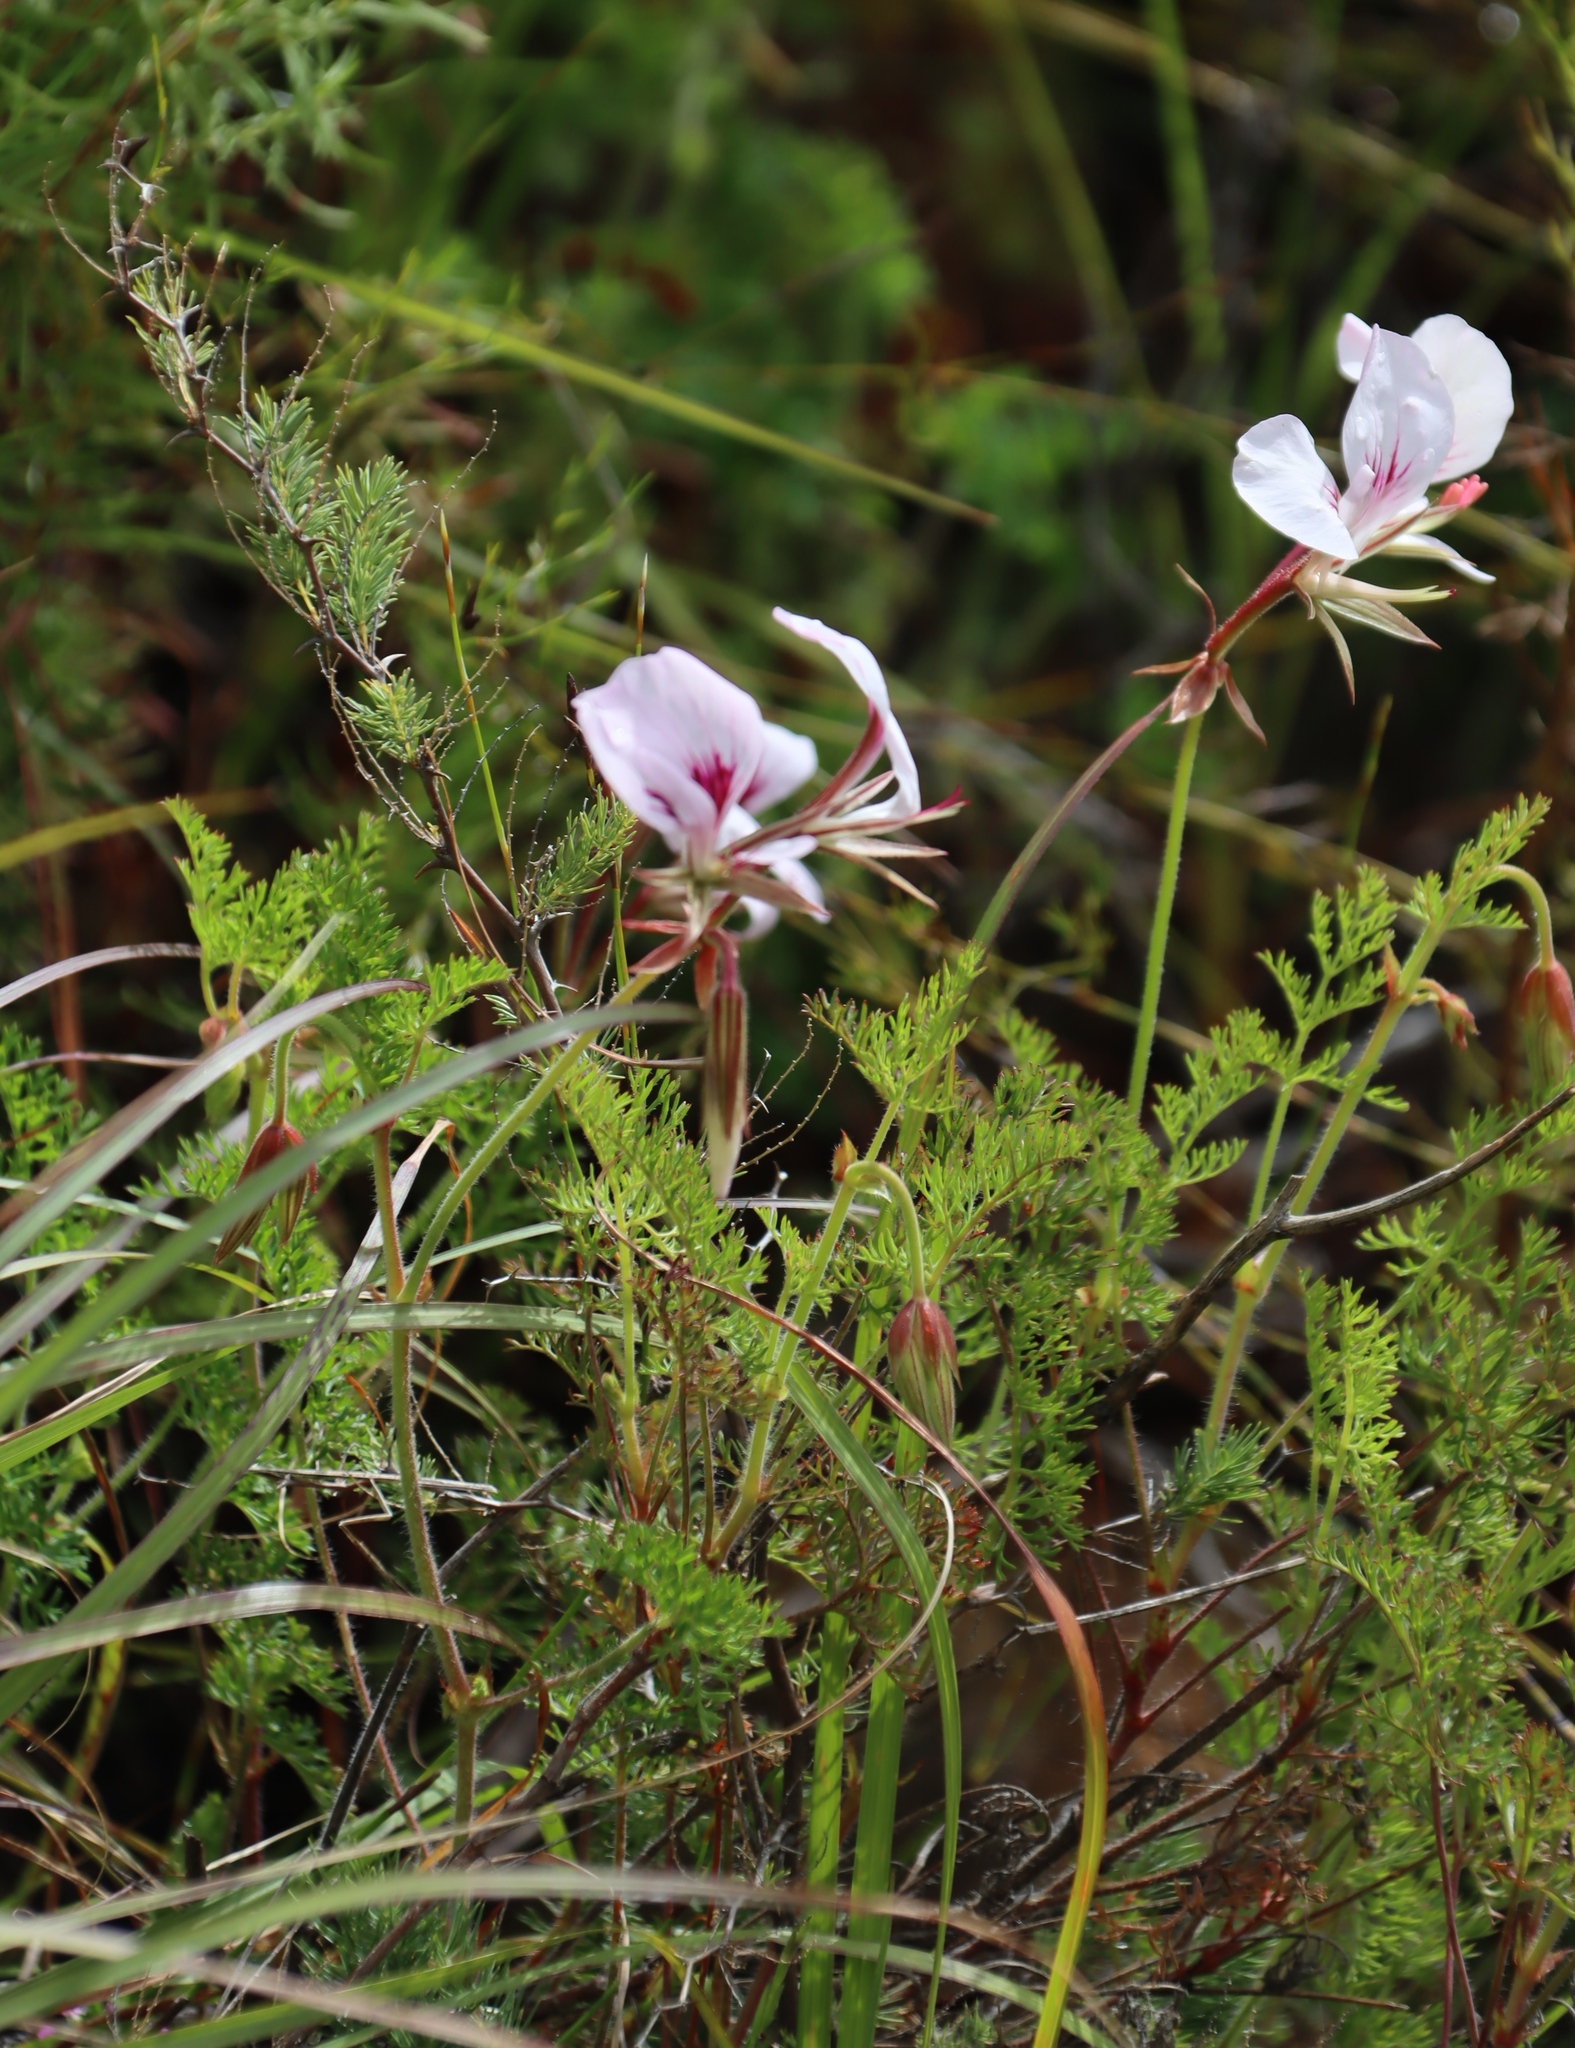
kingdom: Plantae
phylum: Tracheophyta
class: Magnoliopsida
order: Geraniales
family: Geraniaceae
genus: Pelargonium
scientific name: Pelargonium myrrhifolium
